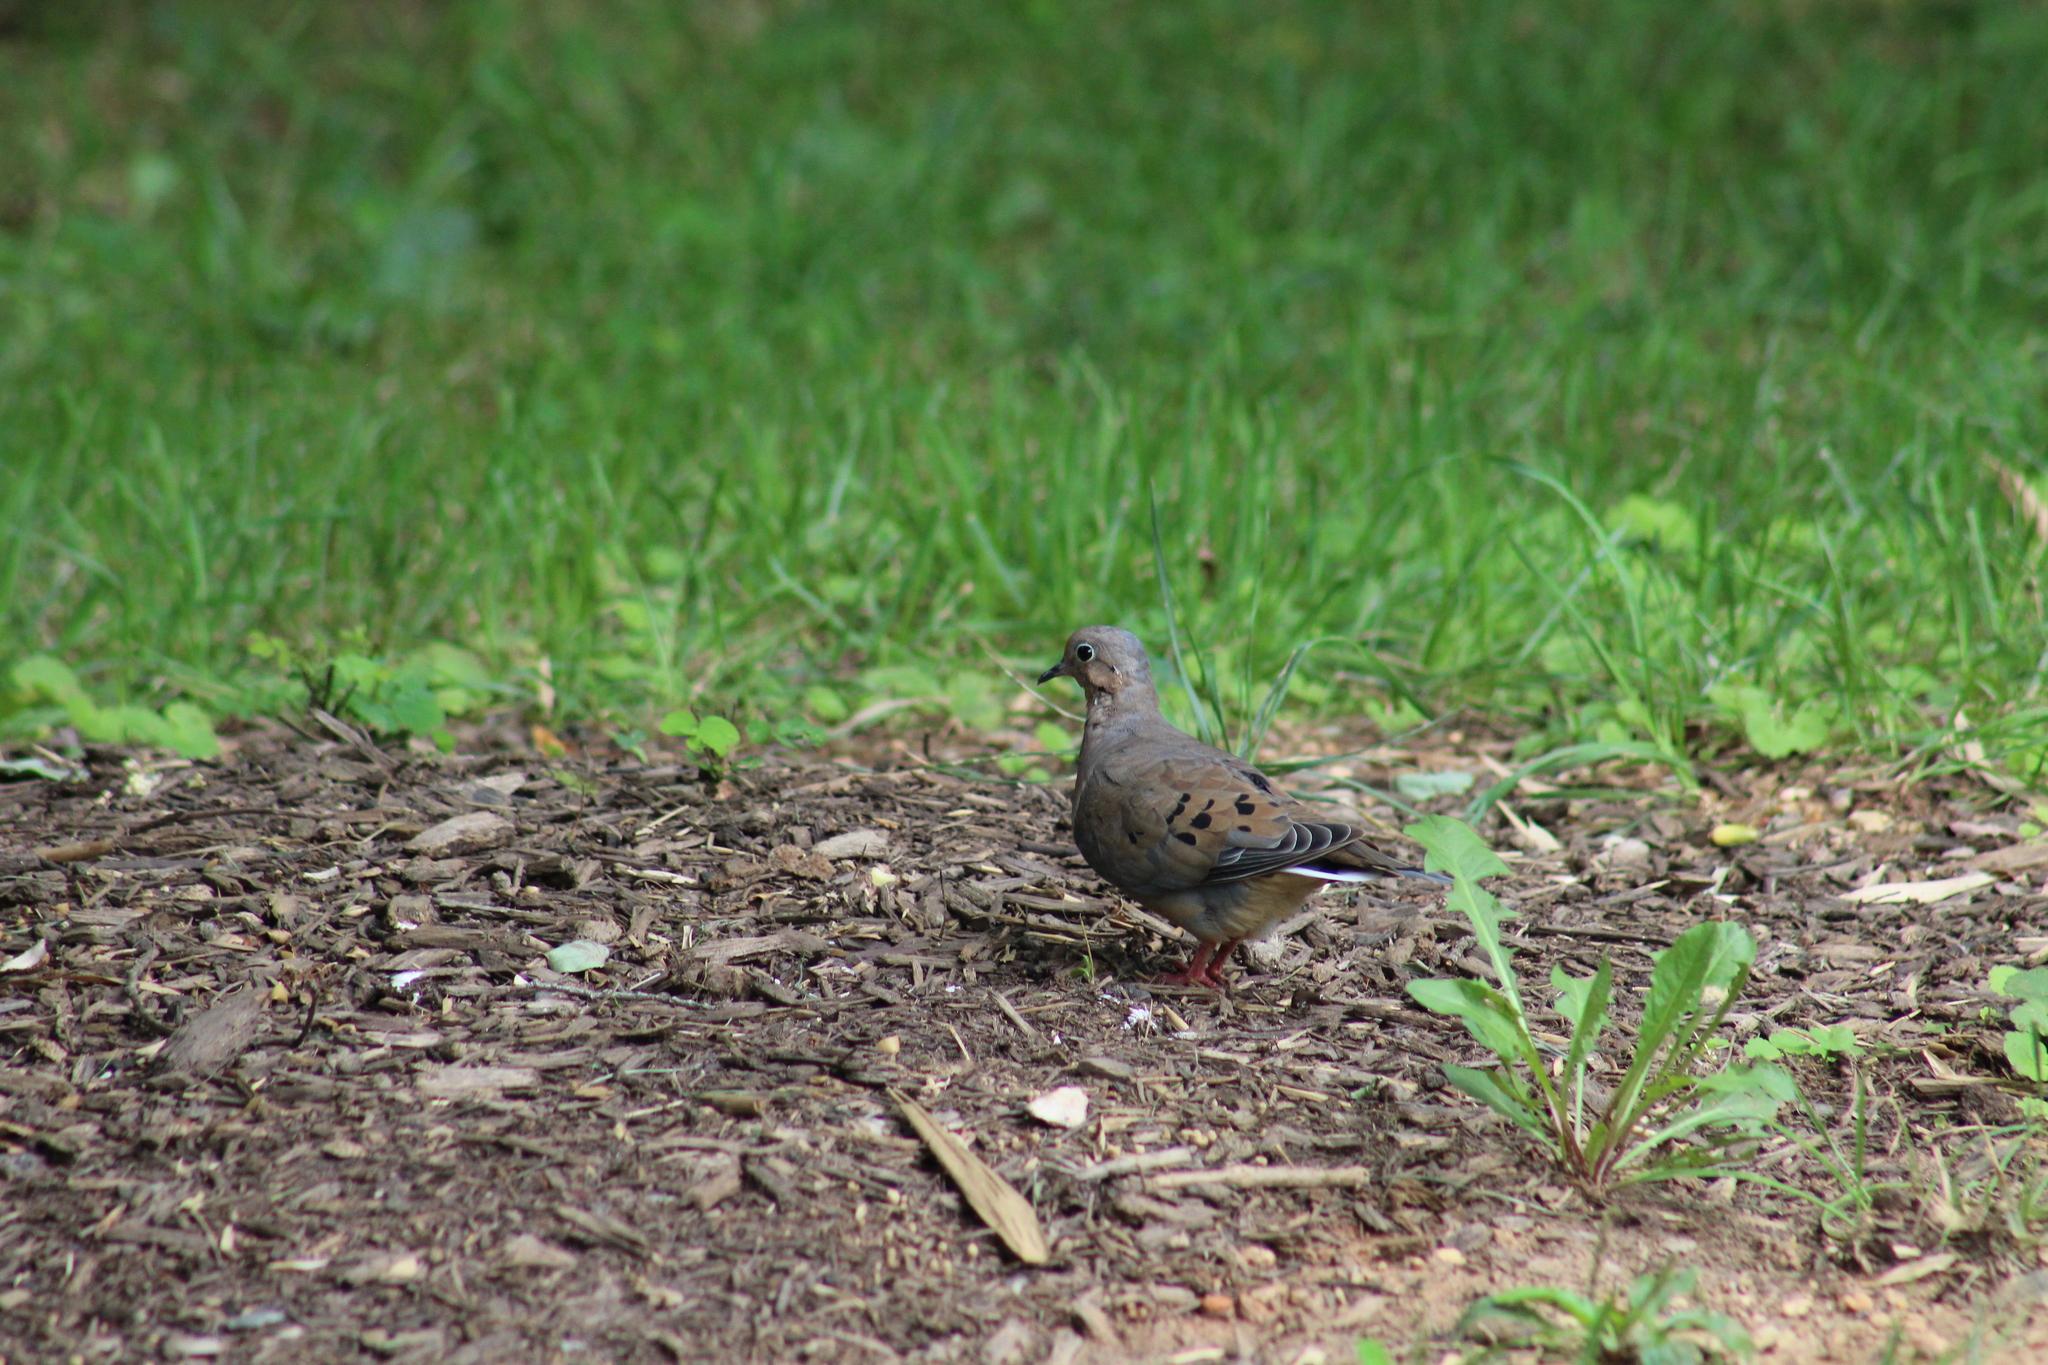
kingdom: Animalia
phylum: Chordata
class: Aves
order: Columbiformes
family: Columbidae
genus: Zenaida
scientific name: Zenaida macroura
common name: Mourning dove
